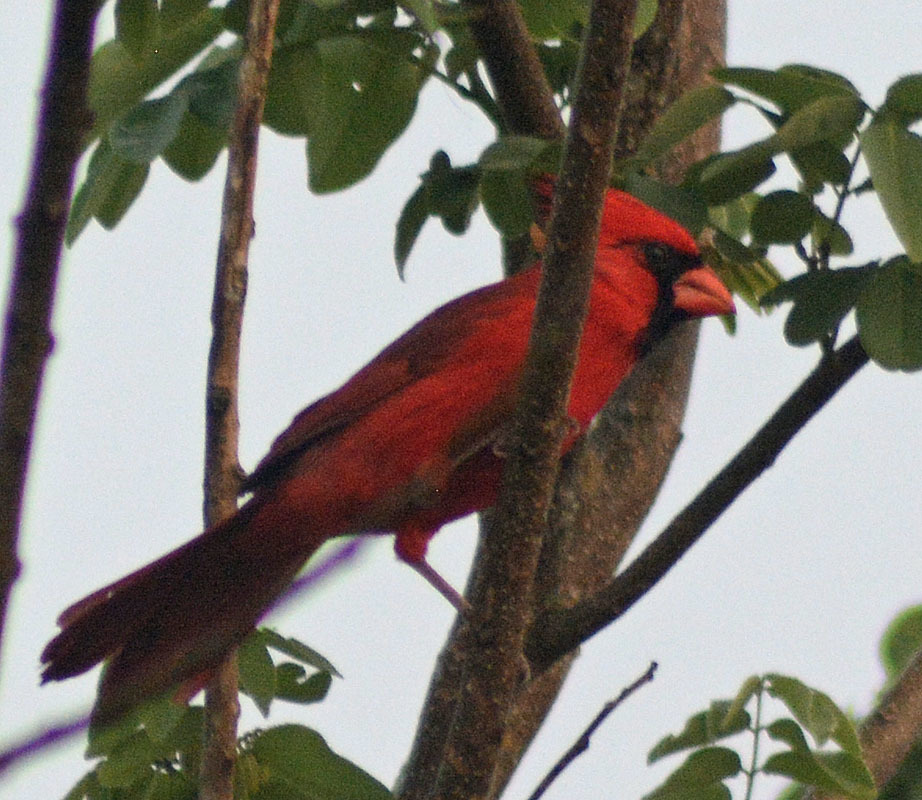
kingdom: Animalia
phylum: Chordata
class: Aves
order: Passeriformes
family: Cardinalidae
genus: Cardinalis
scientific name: Cardinalis cardinalis
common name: Northern cardinal
